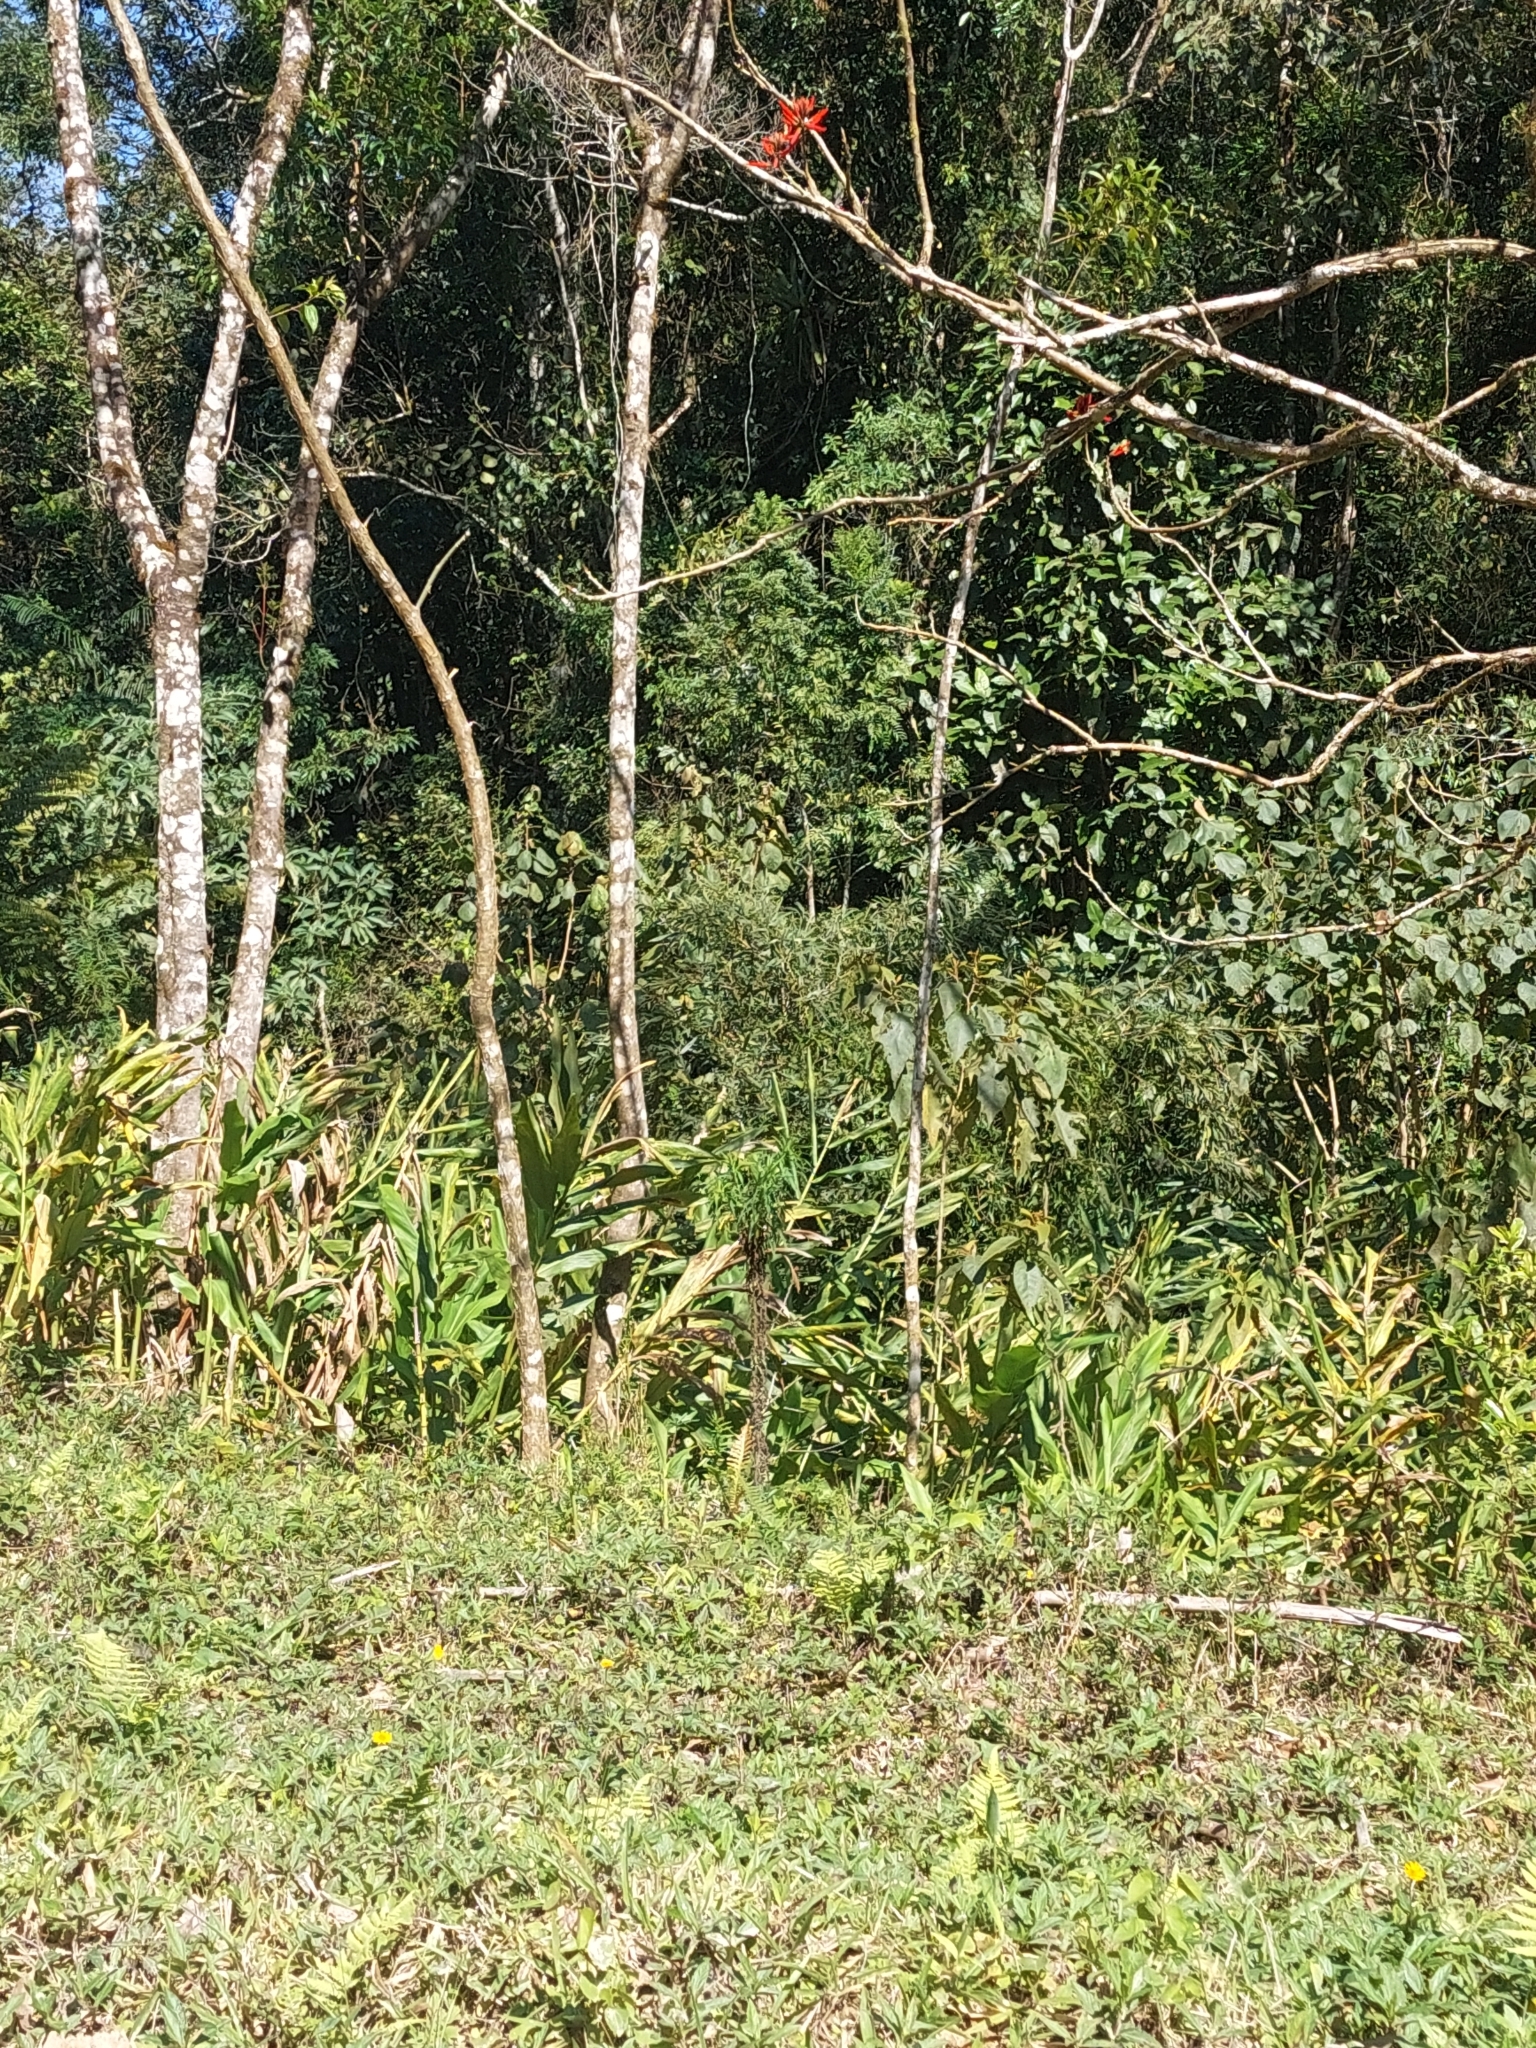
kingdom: Plantae
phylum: Tracheophyta
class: Liliopsida
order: Zingiberales
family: Zingiberaceae
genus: Hedychium
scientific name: Hedychium coronarium
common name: White garland-lily
